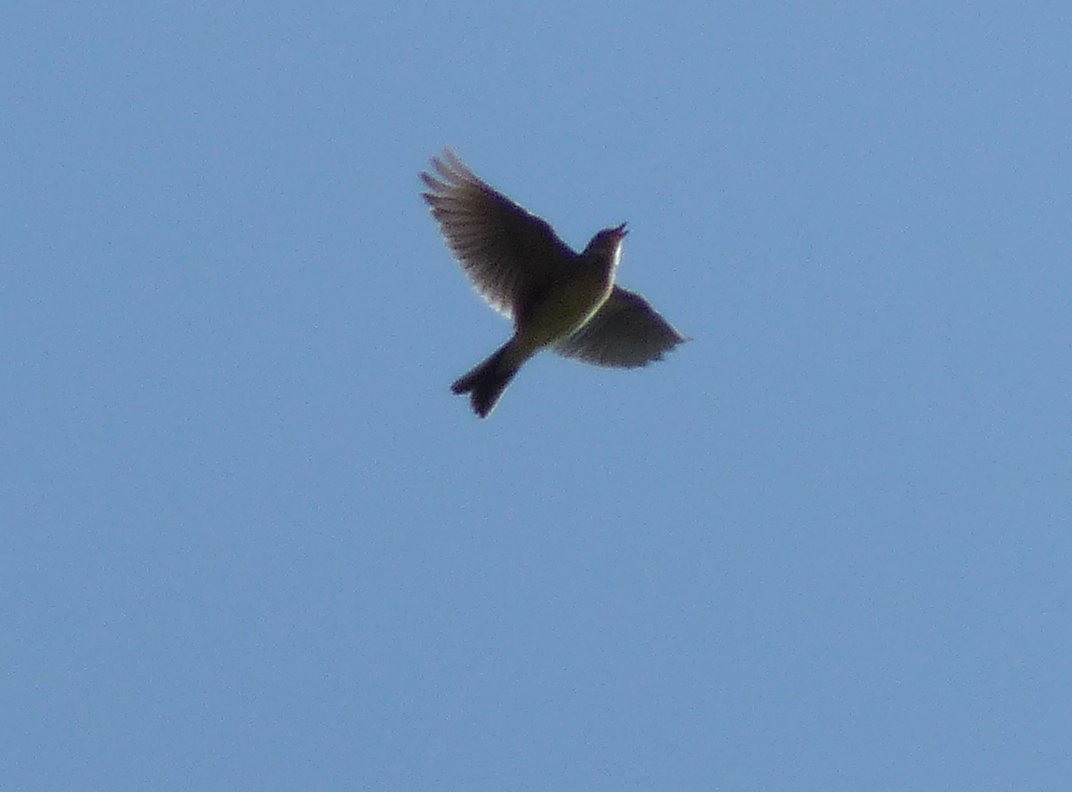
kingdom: Animalia
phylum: Chordata
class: Aves
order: Passeriformes
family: Alaudidae
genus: Alauda
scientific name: Alauda arvensis
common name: Eurasian skylark
